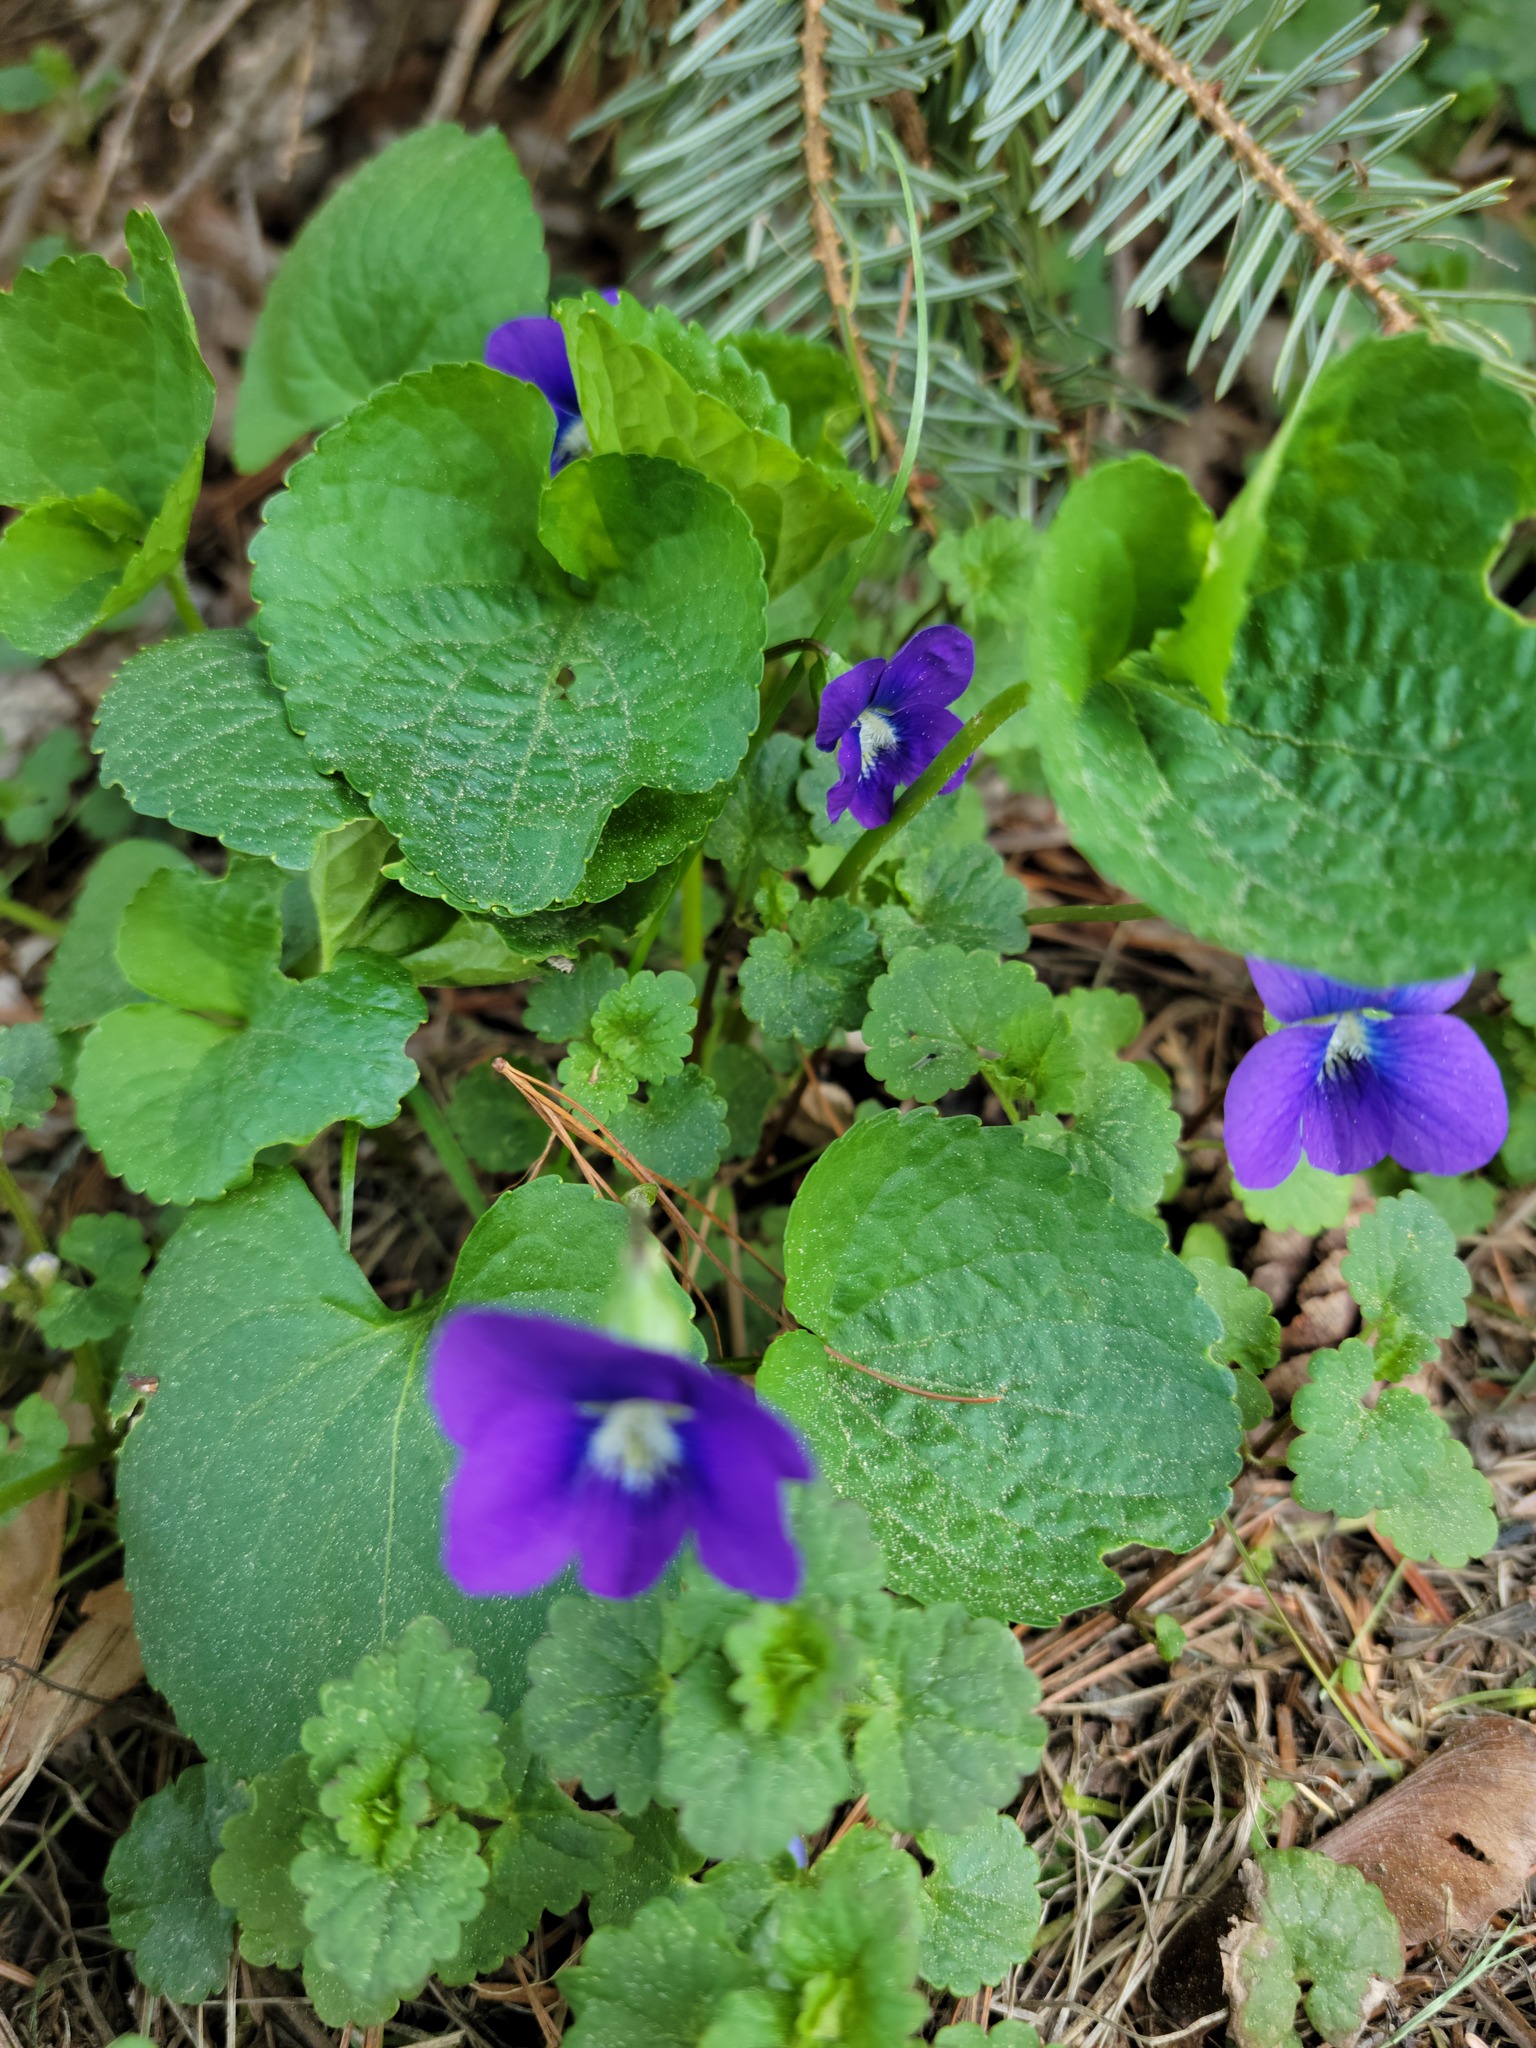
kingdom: Plantae
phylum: Tracheophyta
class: Magnoliopsida
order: Malpighiales
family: Violaceae
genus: Viola
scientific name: Viola sororia
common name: Dooryard violet
